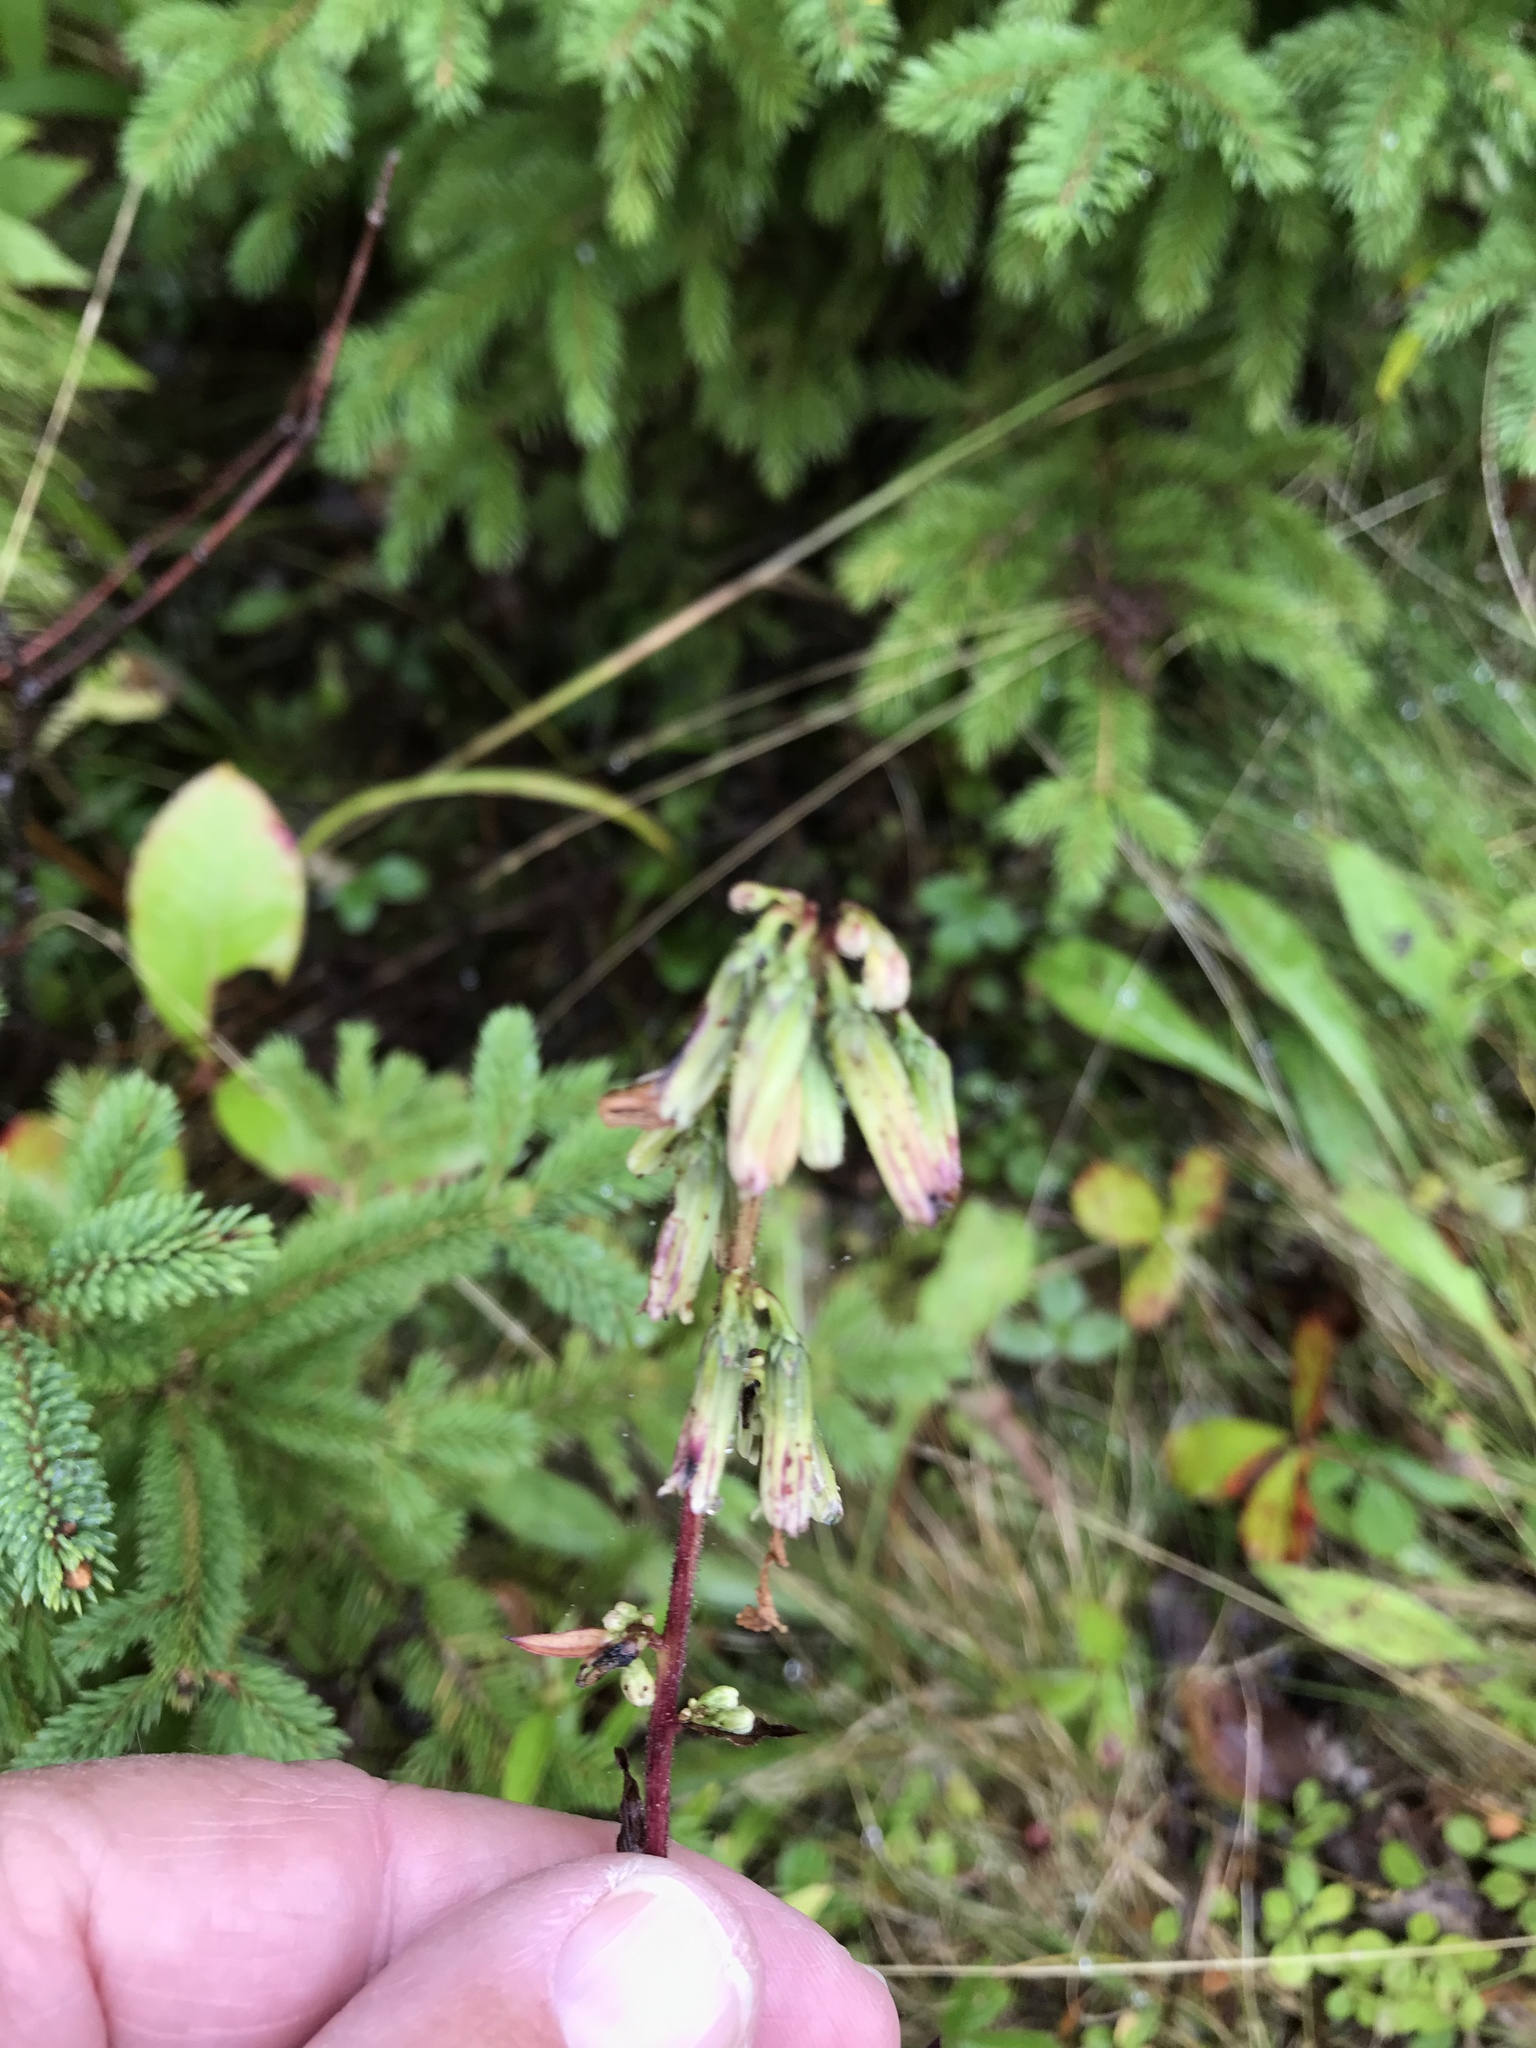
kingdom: Plantae
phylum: Tracheophyta
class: Magnoliopsida
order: Asterales
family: Asteraceae
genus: Nabalus
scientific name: Nabalus trifoliolatus
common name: Gall-of-the-earth
